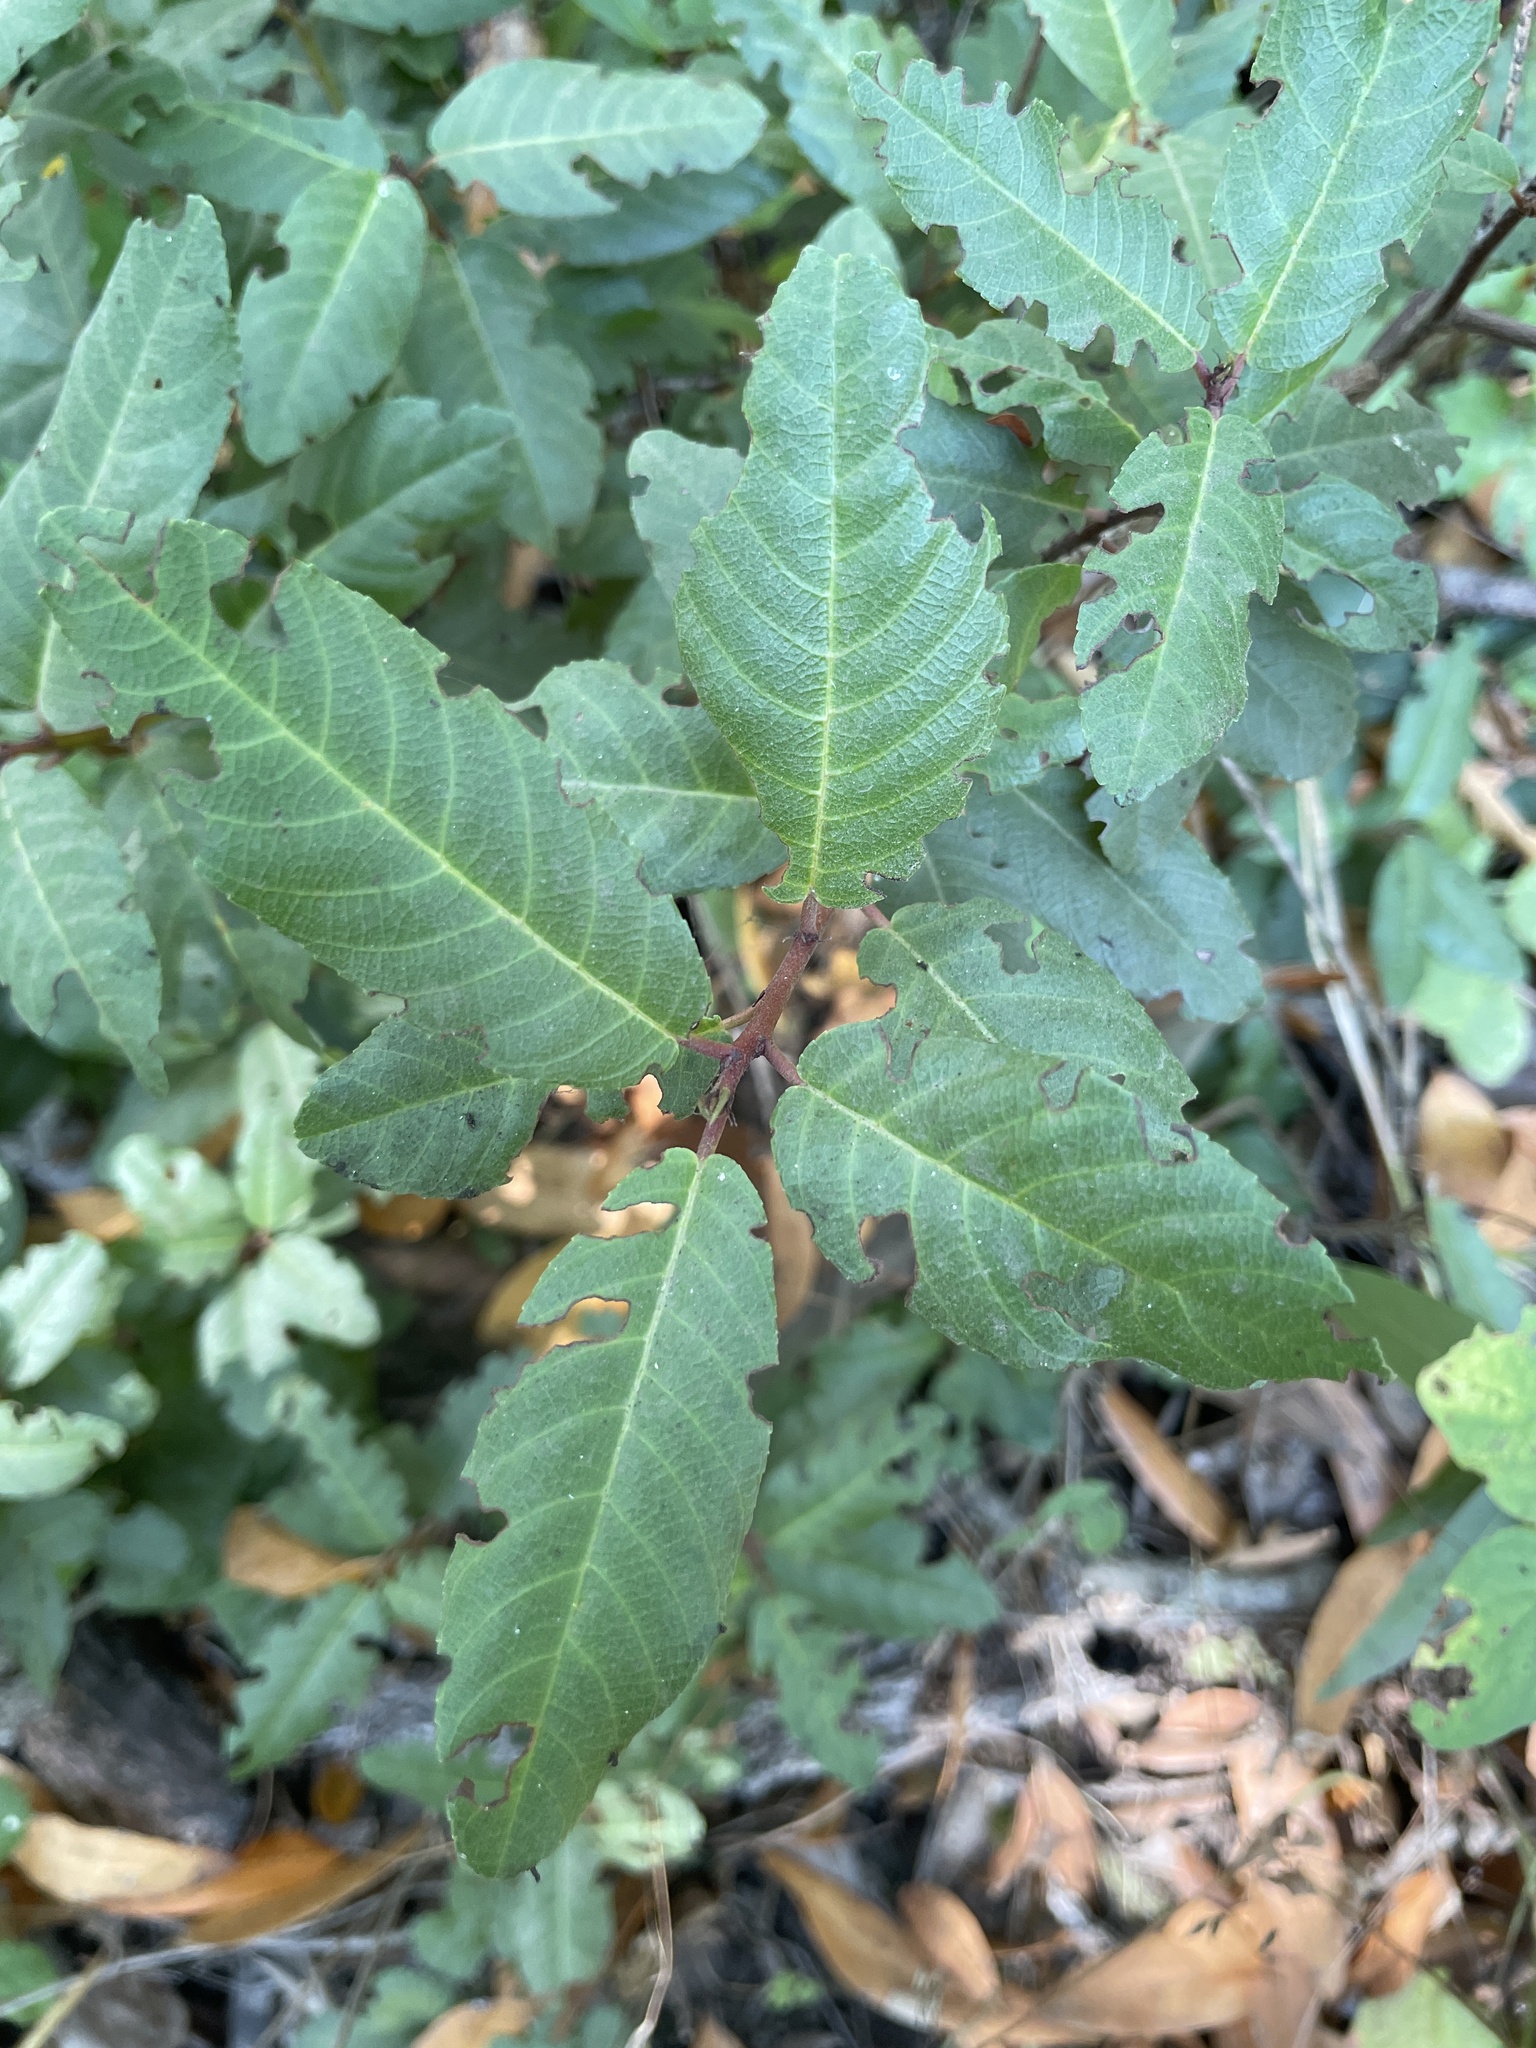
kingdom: Plantae
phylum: Tracheophyta
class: Magnoliopsida
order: Rosales
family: Rhamnaceae
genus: Frangula
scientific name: Frangula californica
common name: California buckthorn
